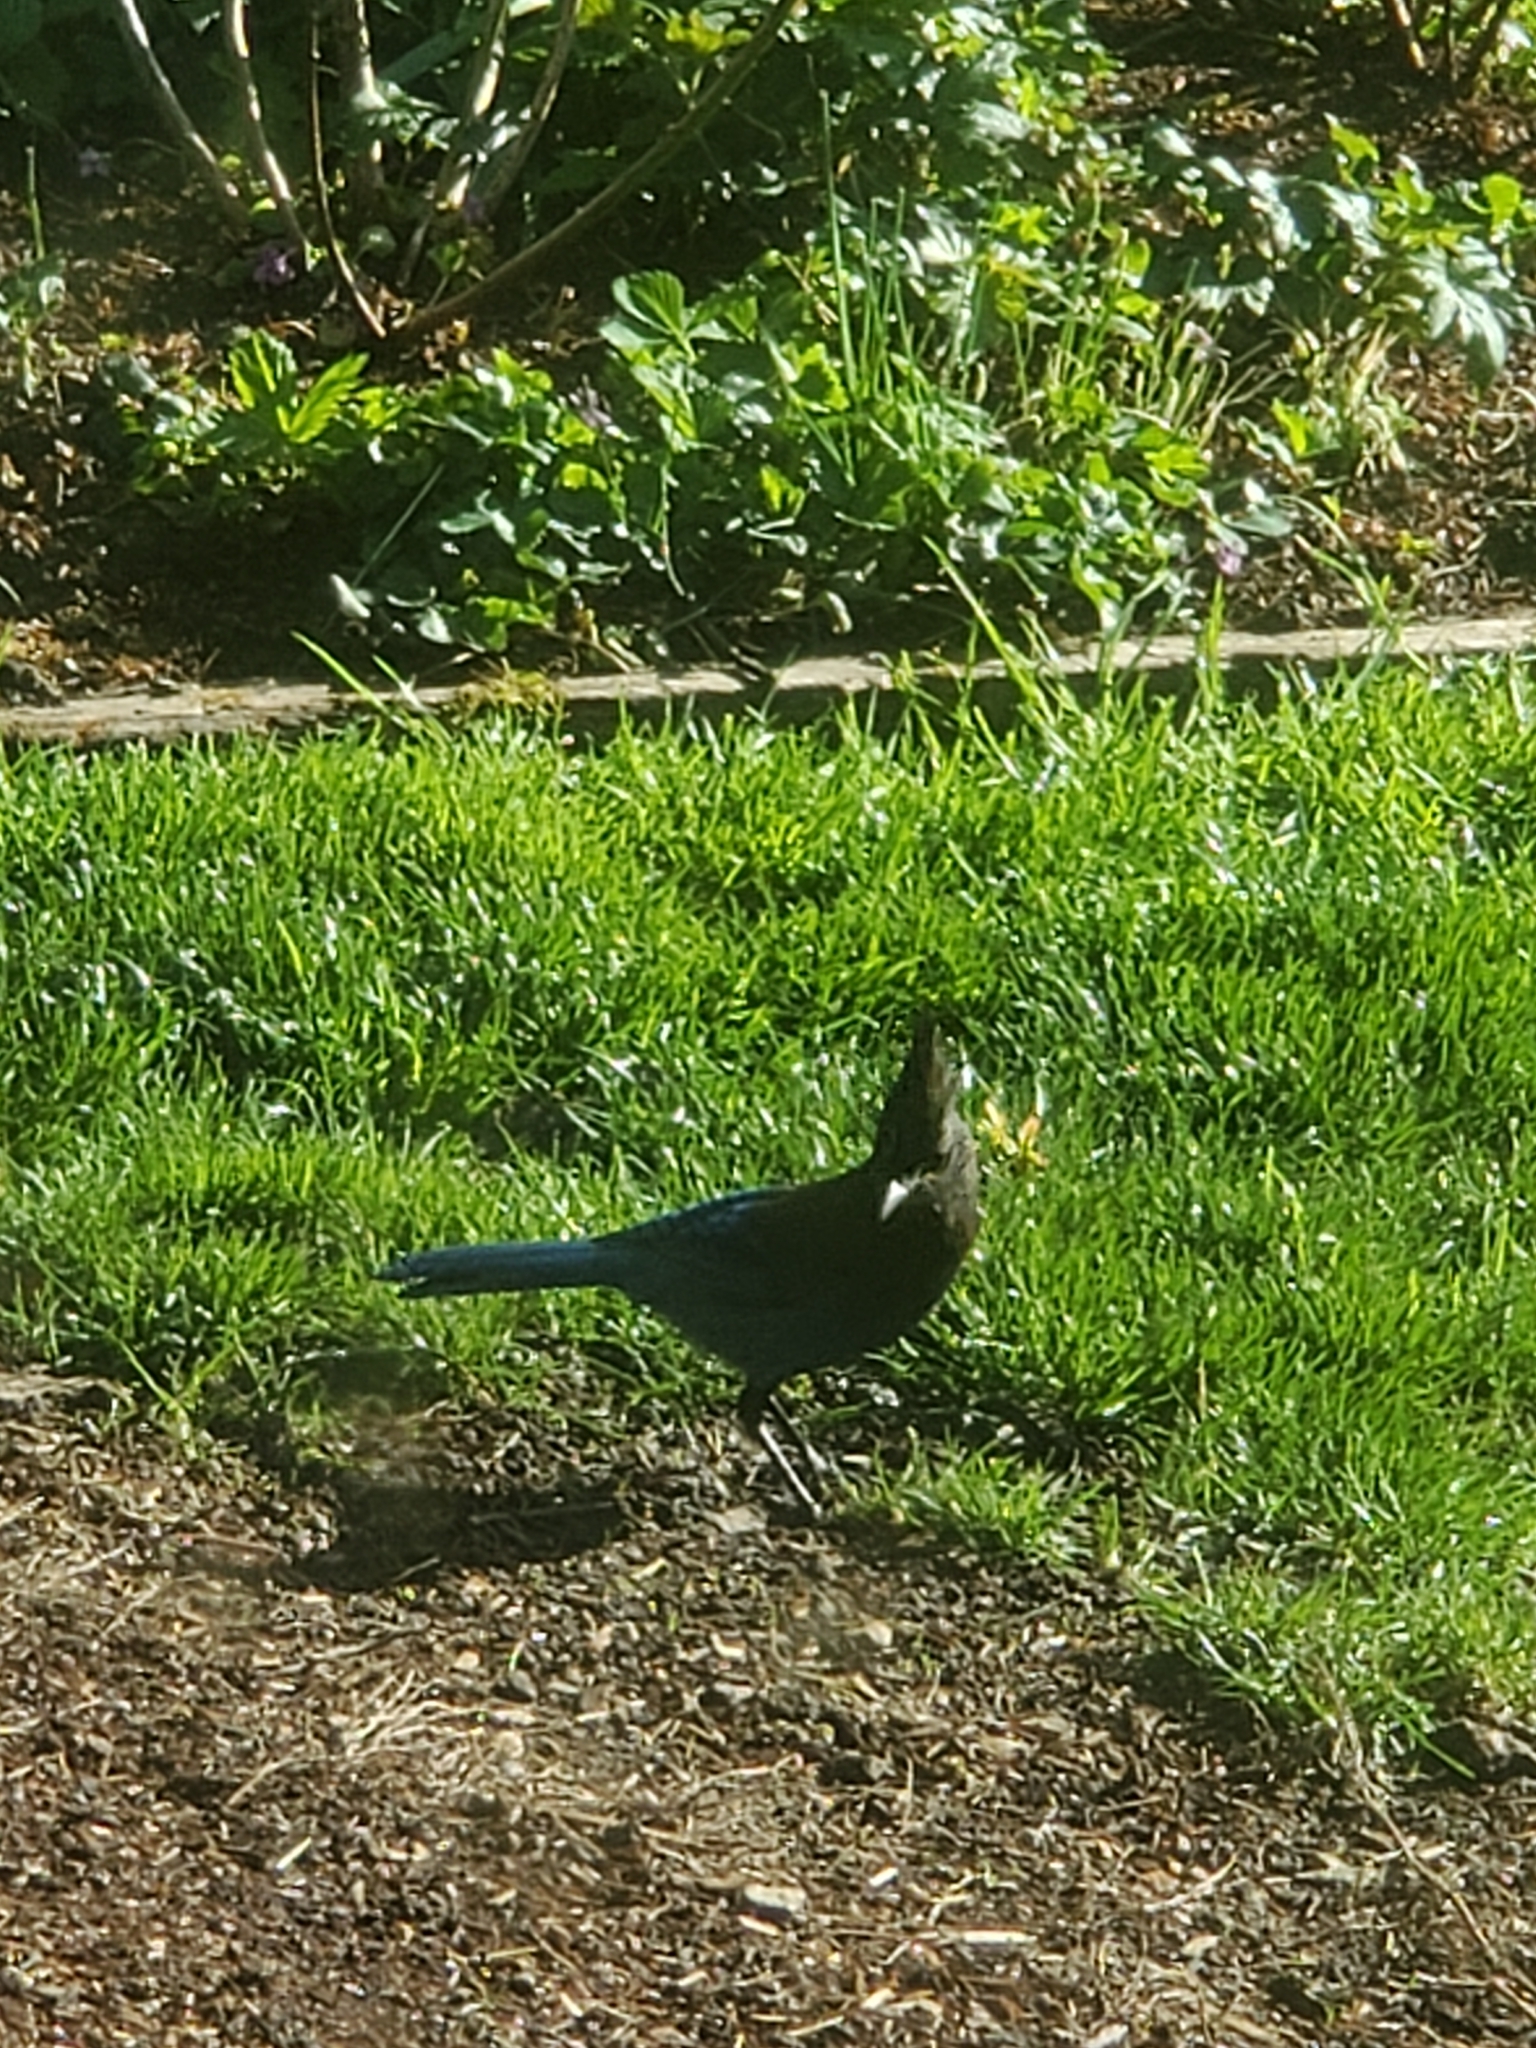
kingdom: Animalia
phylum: Chordata
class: Aves
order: Passeriformes
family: Corvidae
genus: Cyanocitta
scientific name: Cyanocitta stelleri
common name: Steller's jay
